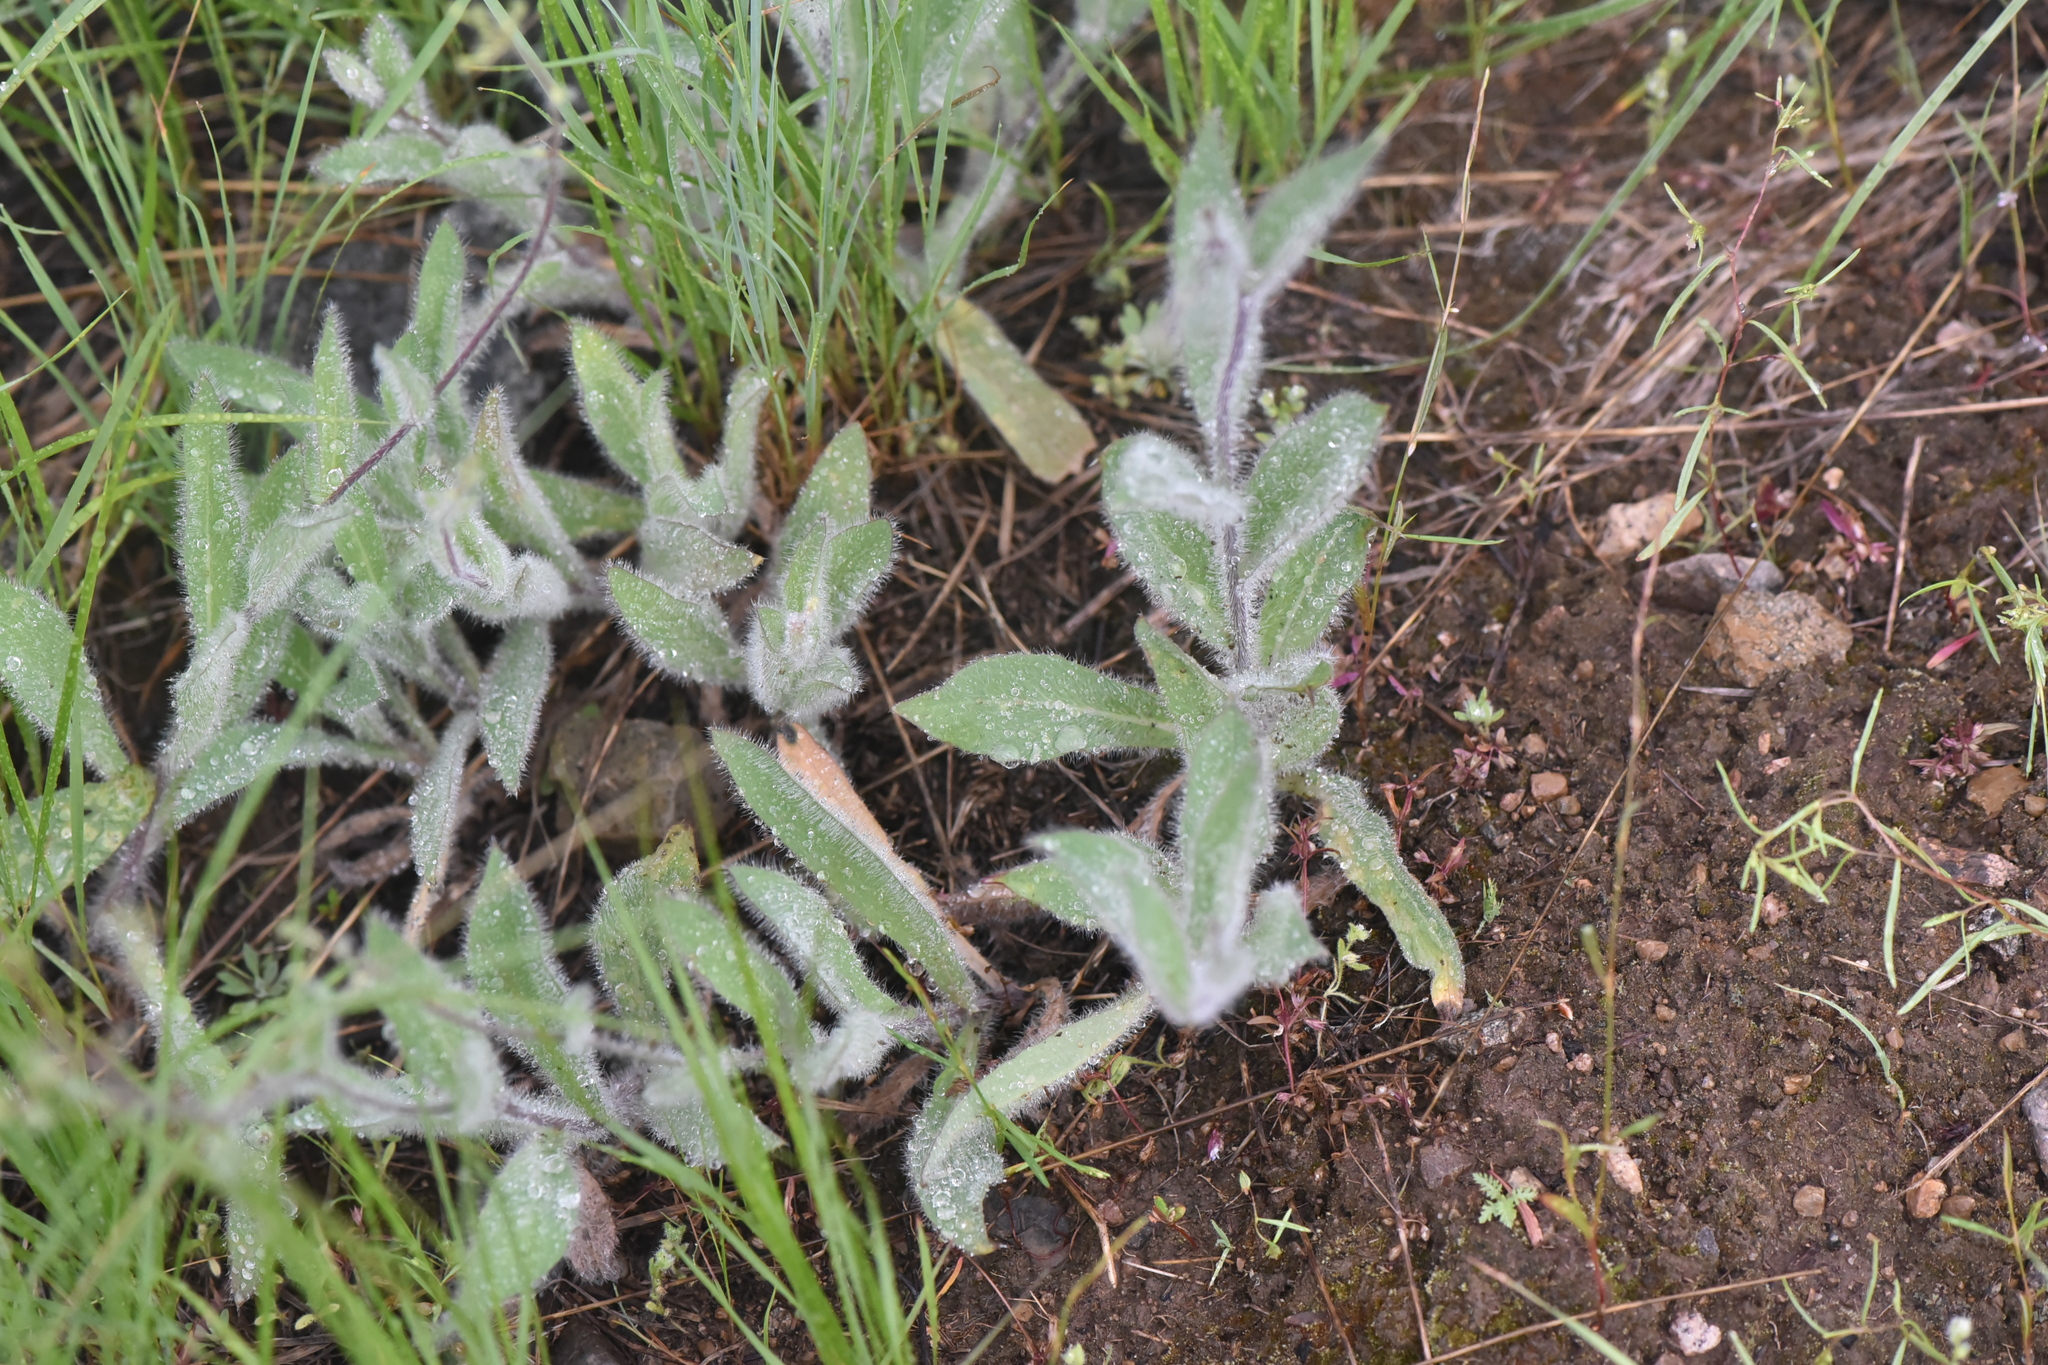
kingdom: Plantae
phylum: Tracheophyta
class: Magnoliopsida
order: Asterales
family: Asteraceae
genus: Hieracium
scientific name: Hieracium scouleri
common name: Hound's-tongue hawkweed
